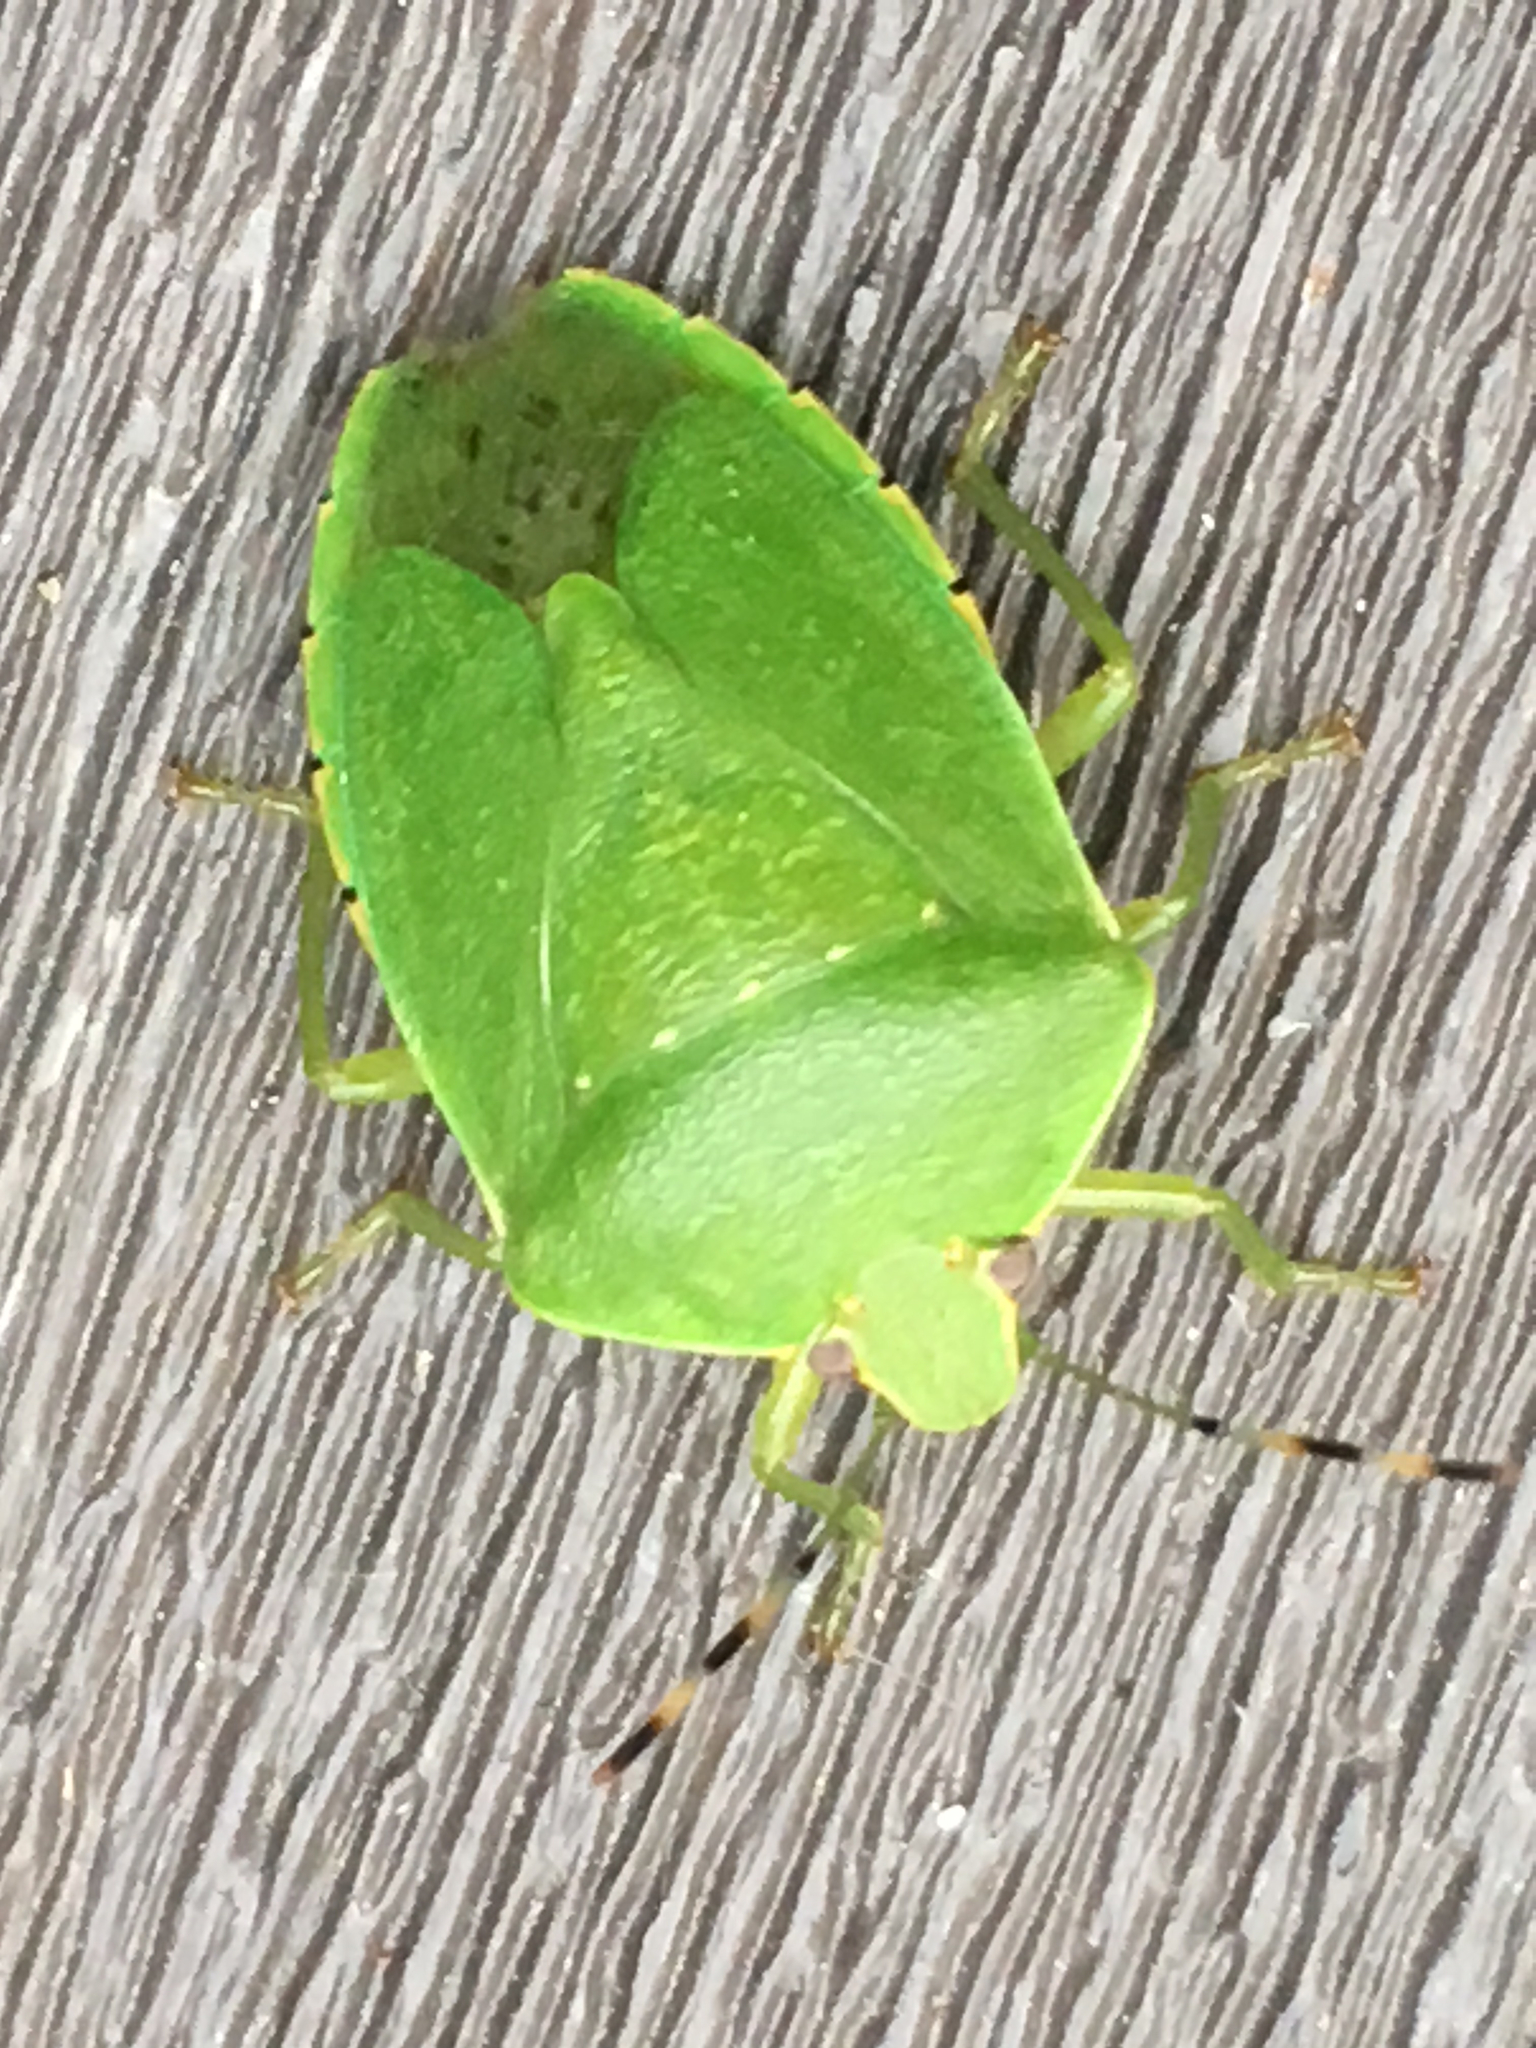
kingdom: Animalia
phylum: Arthropoda
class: Insecta
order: Hemiptera
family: Pentatomidae
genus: Chinavia
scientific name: Chinavia hilaris
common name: Green stink bug
